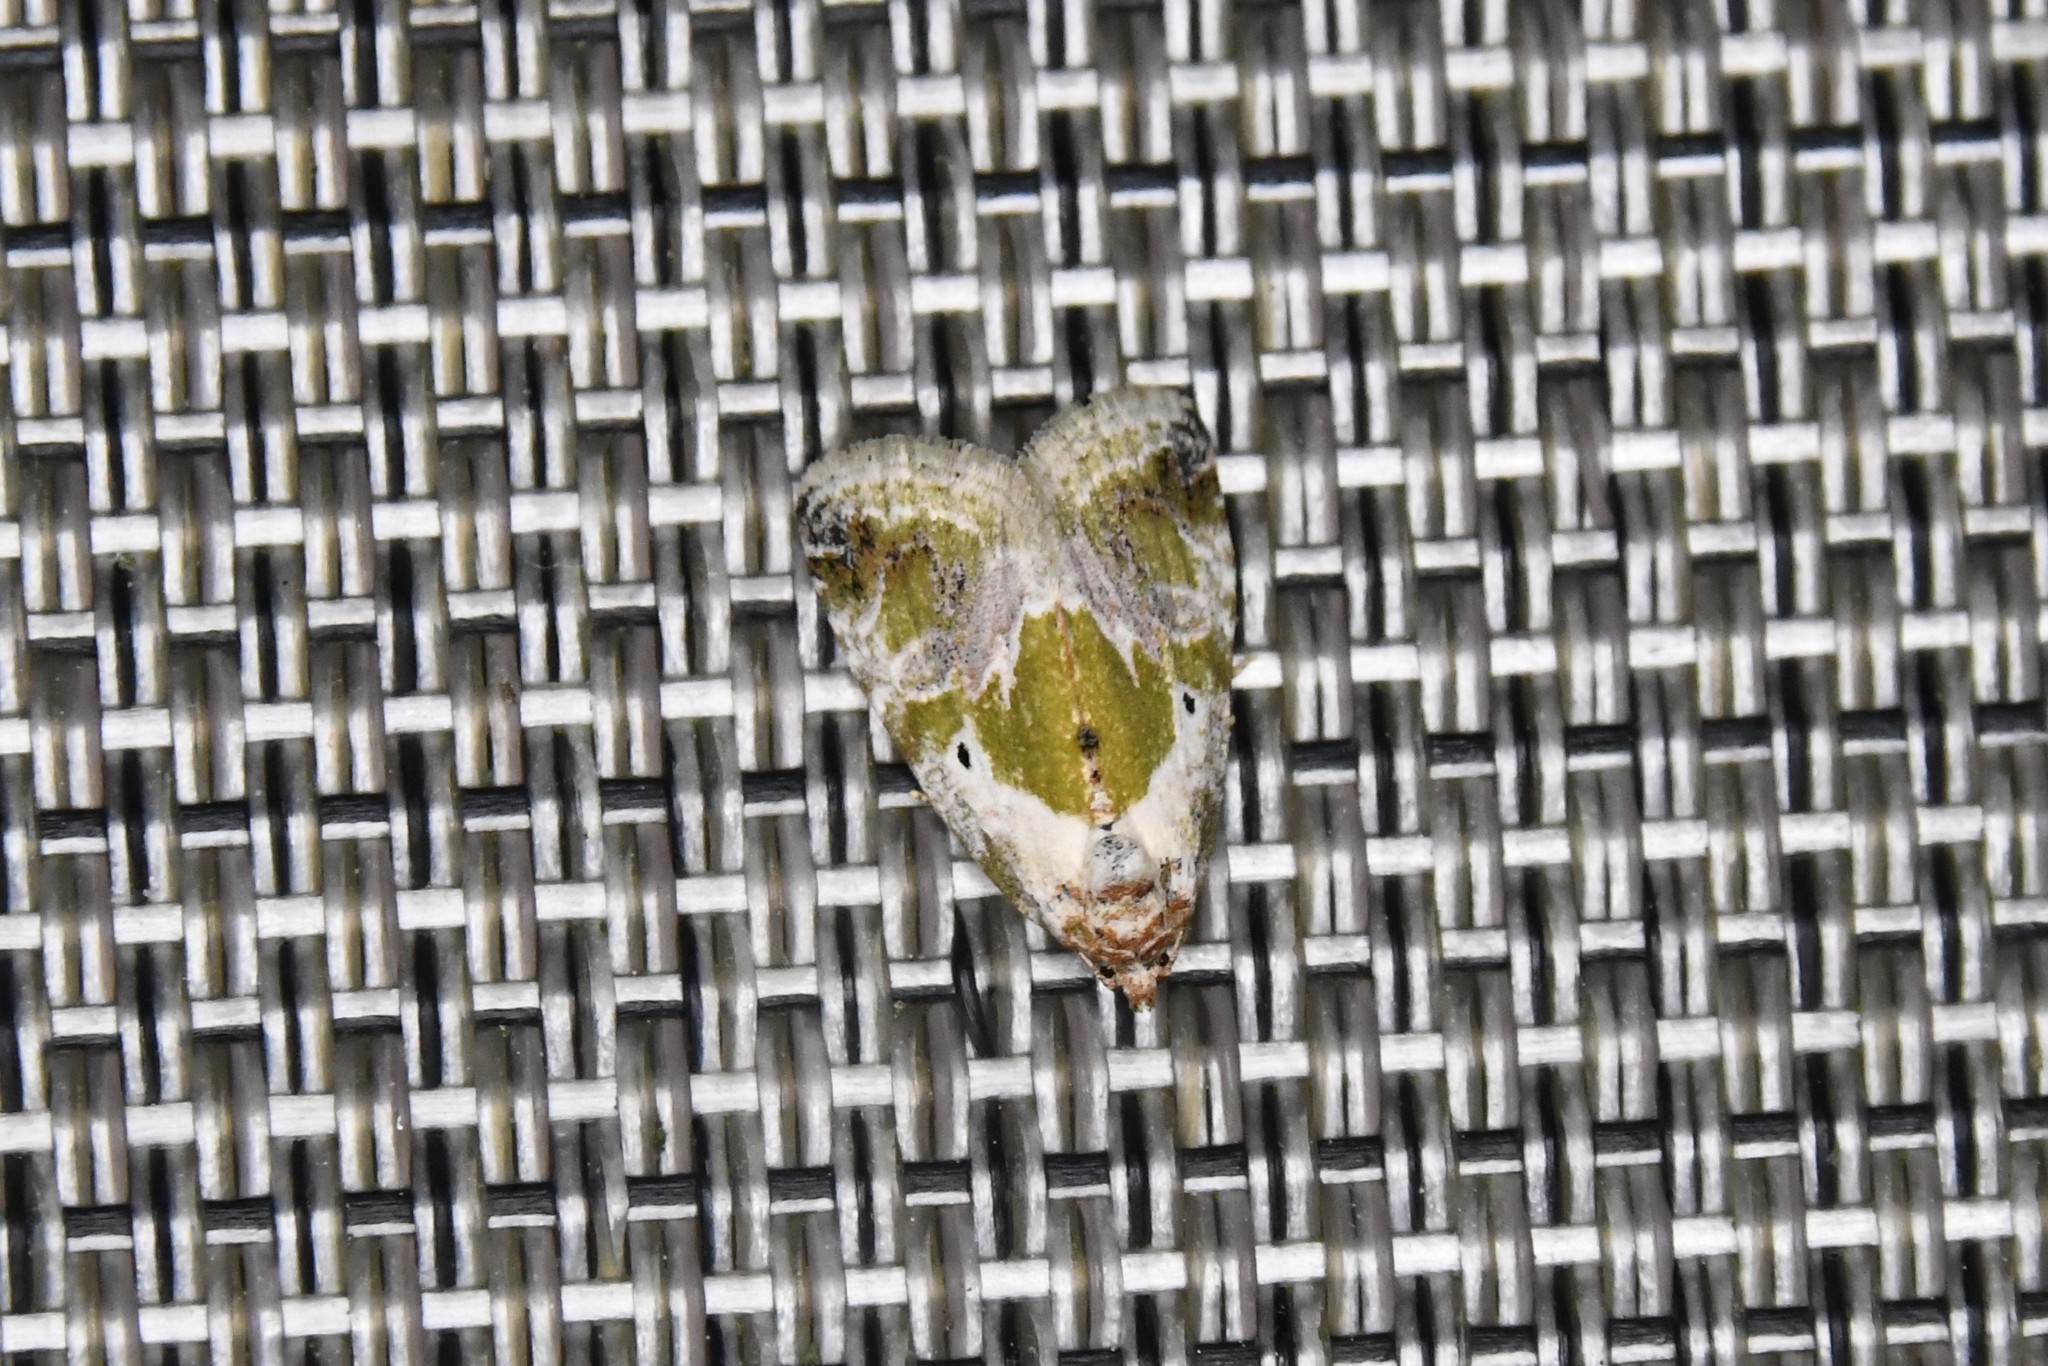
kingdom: Animalia
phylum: Arthropoda
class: Insecta
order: Lepidoptera
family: Noctuidae
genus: Maliattha
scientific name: Maliattha synochitis
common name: Black-dotted glyph
